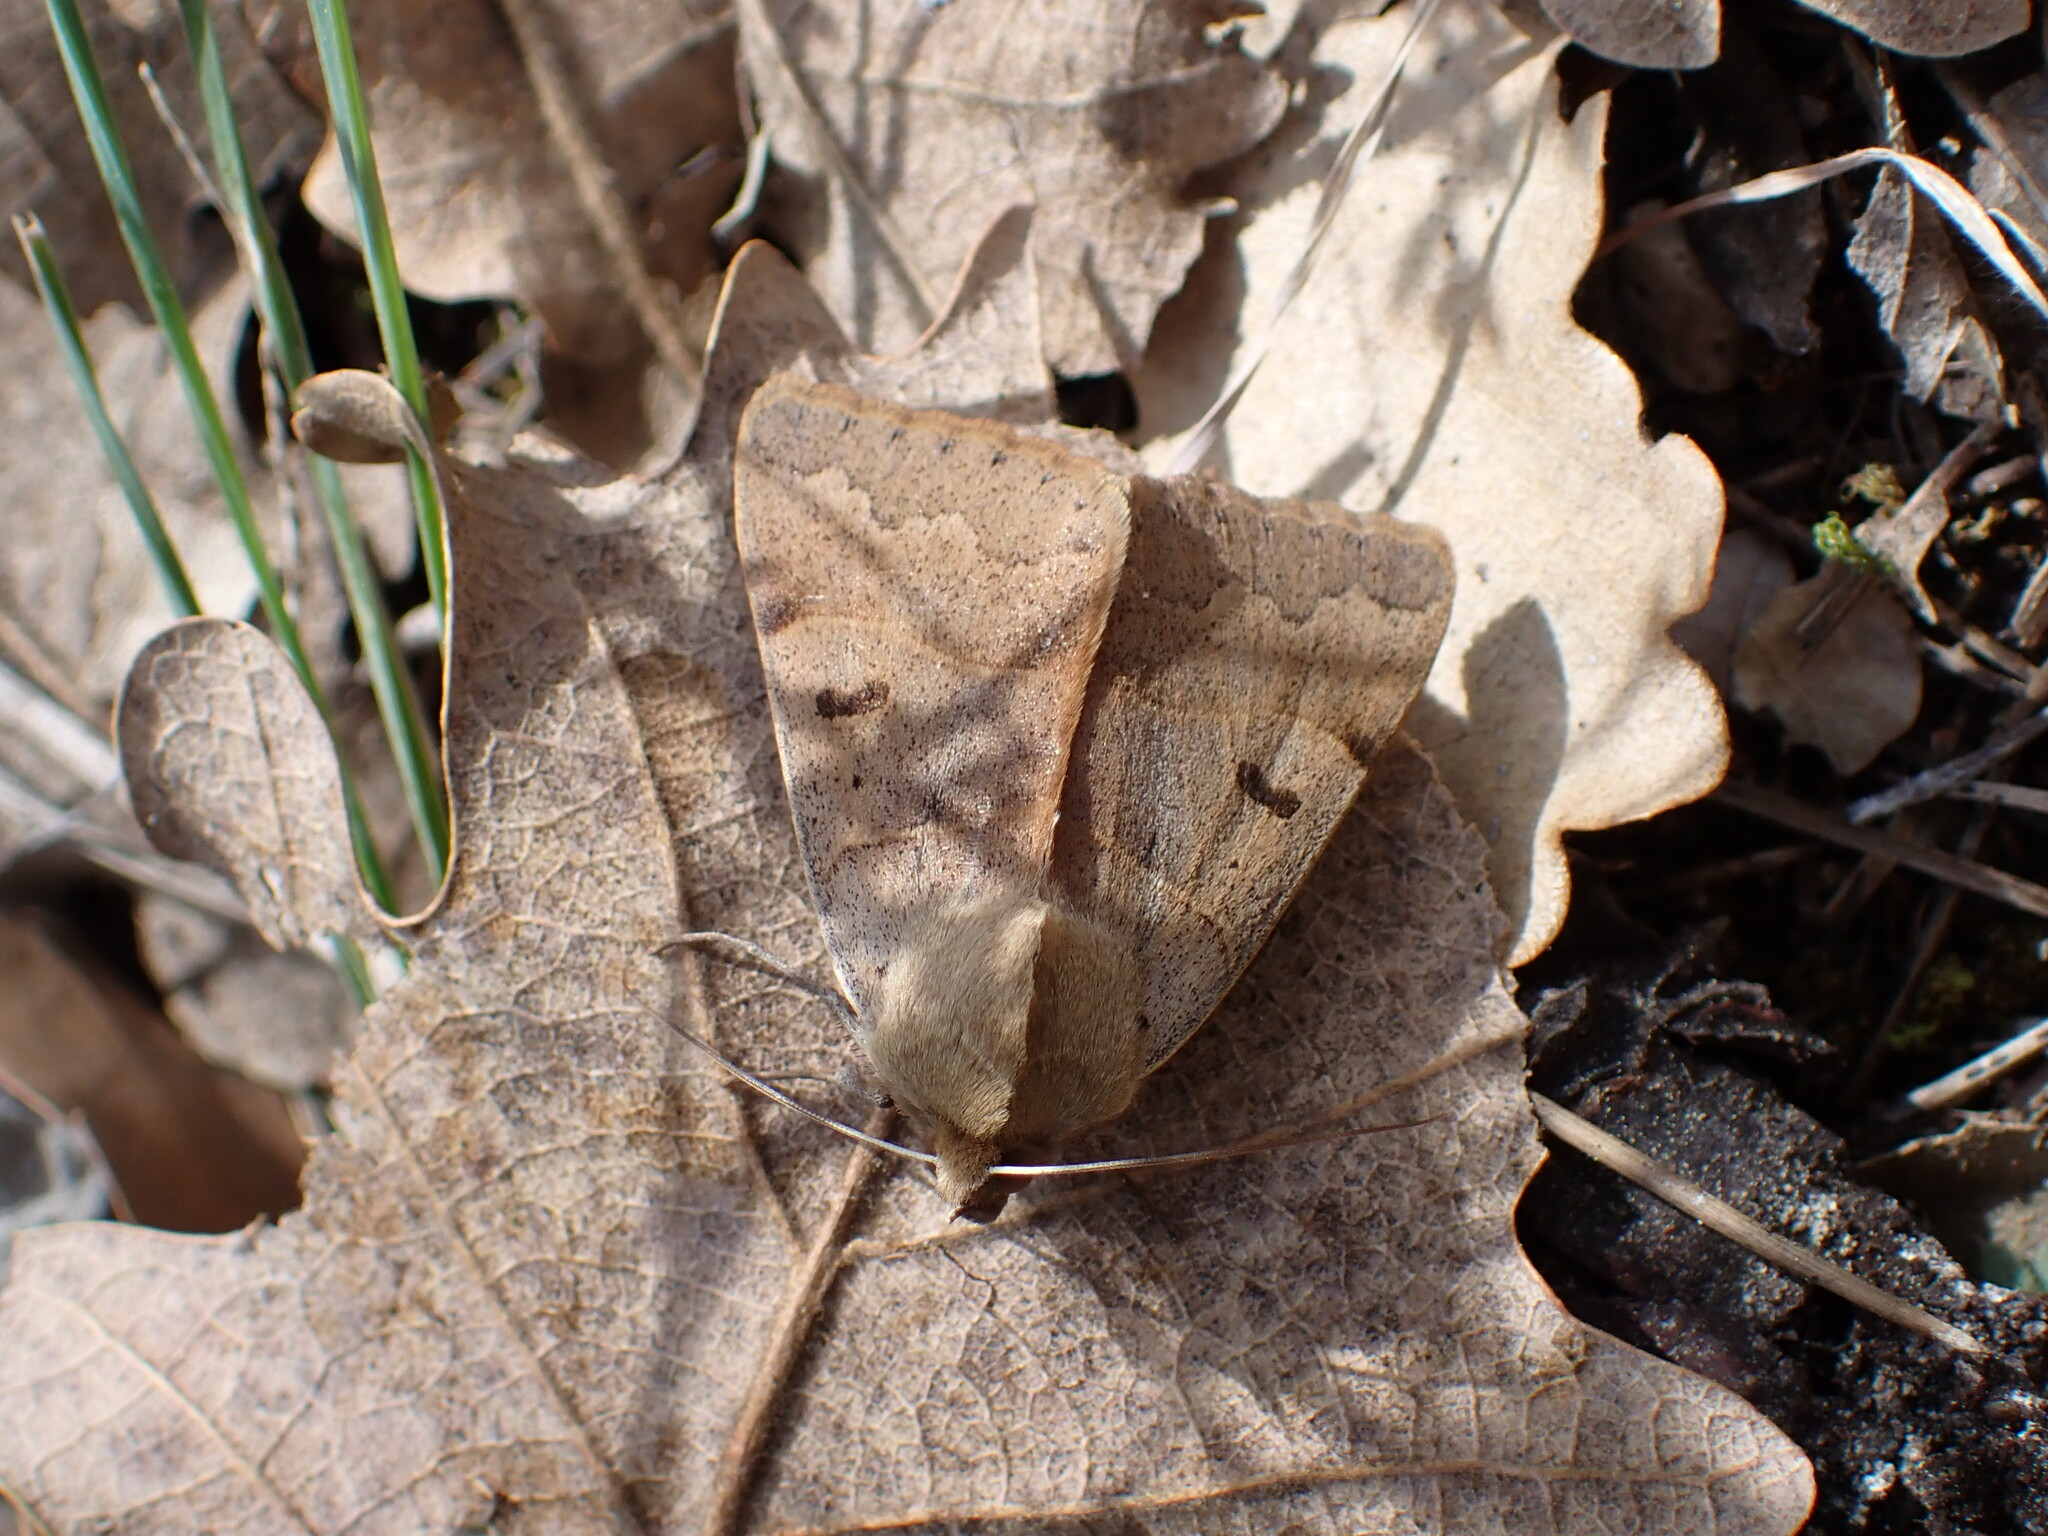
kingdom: Animalia
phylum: Arthropoda
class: Insecta
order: Lepidoptera
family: Erebidae
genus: Minucia
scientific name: Minucia lunaris
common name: Lunar double-stripe
